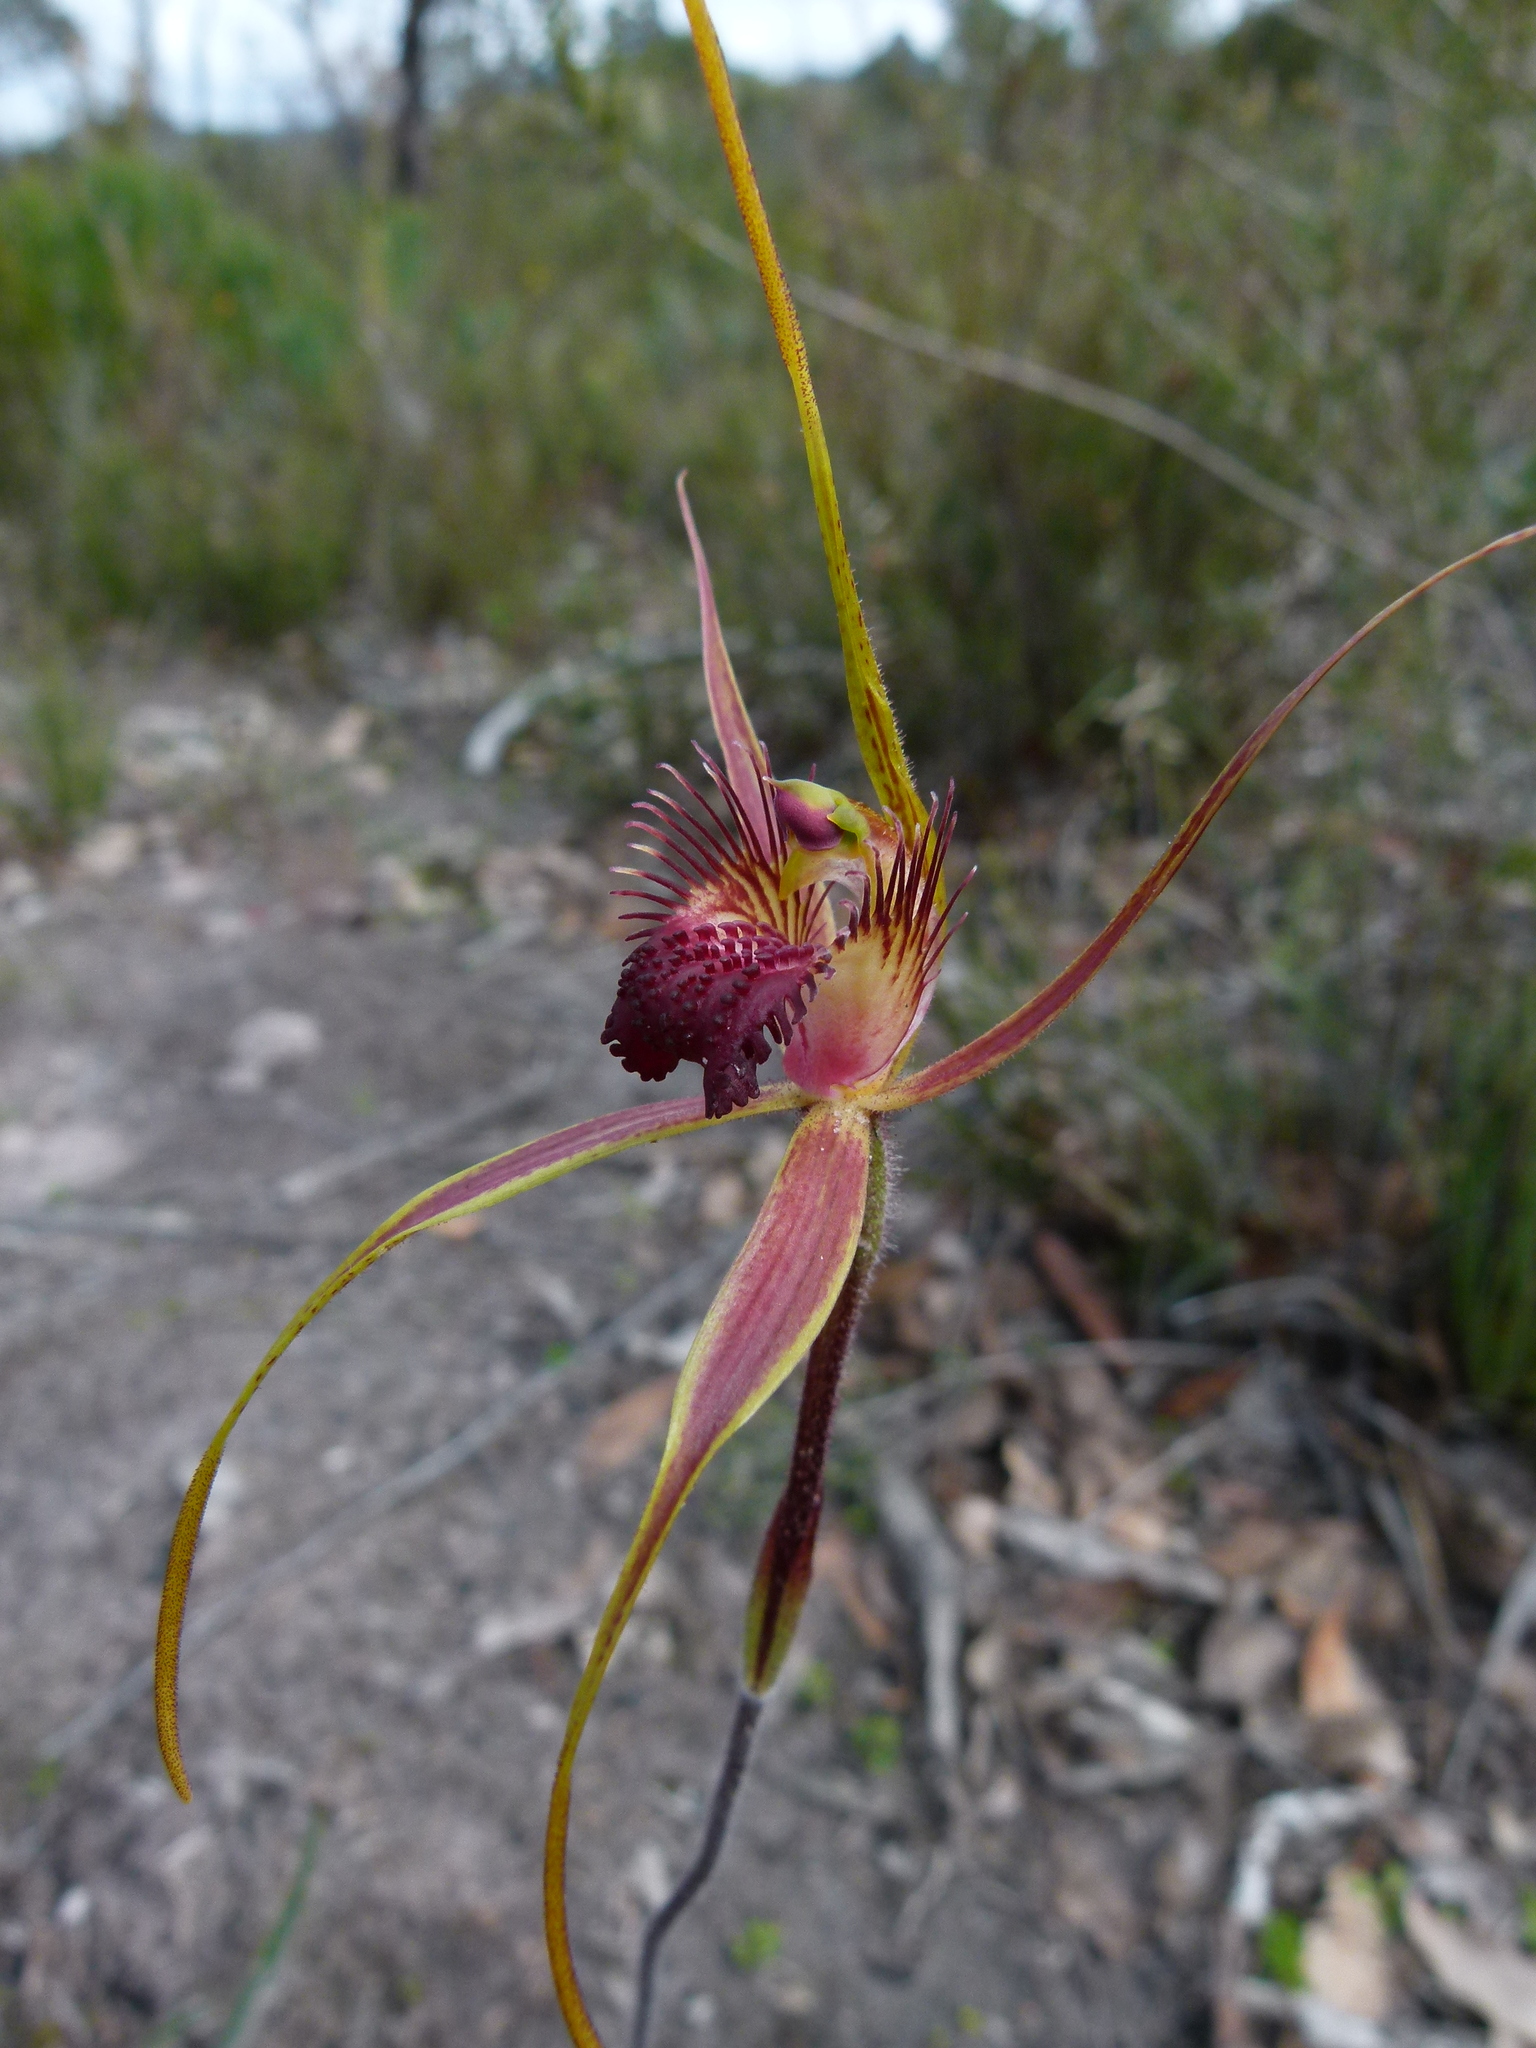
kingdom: Plantae
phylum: Tracheophyta
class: Liliopsida
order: Asparagales
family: Orchidaceae
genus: Caladenia
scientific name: Caladenia pectinata
